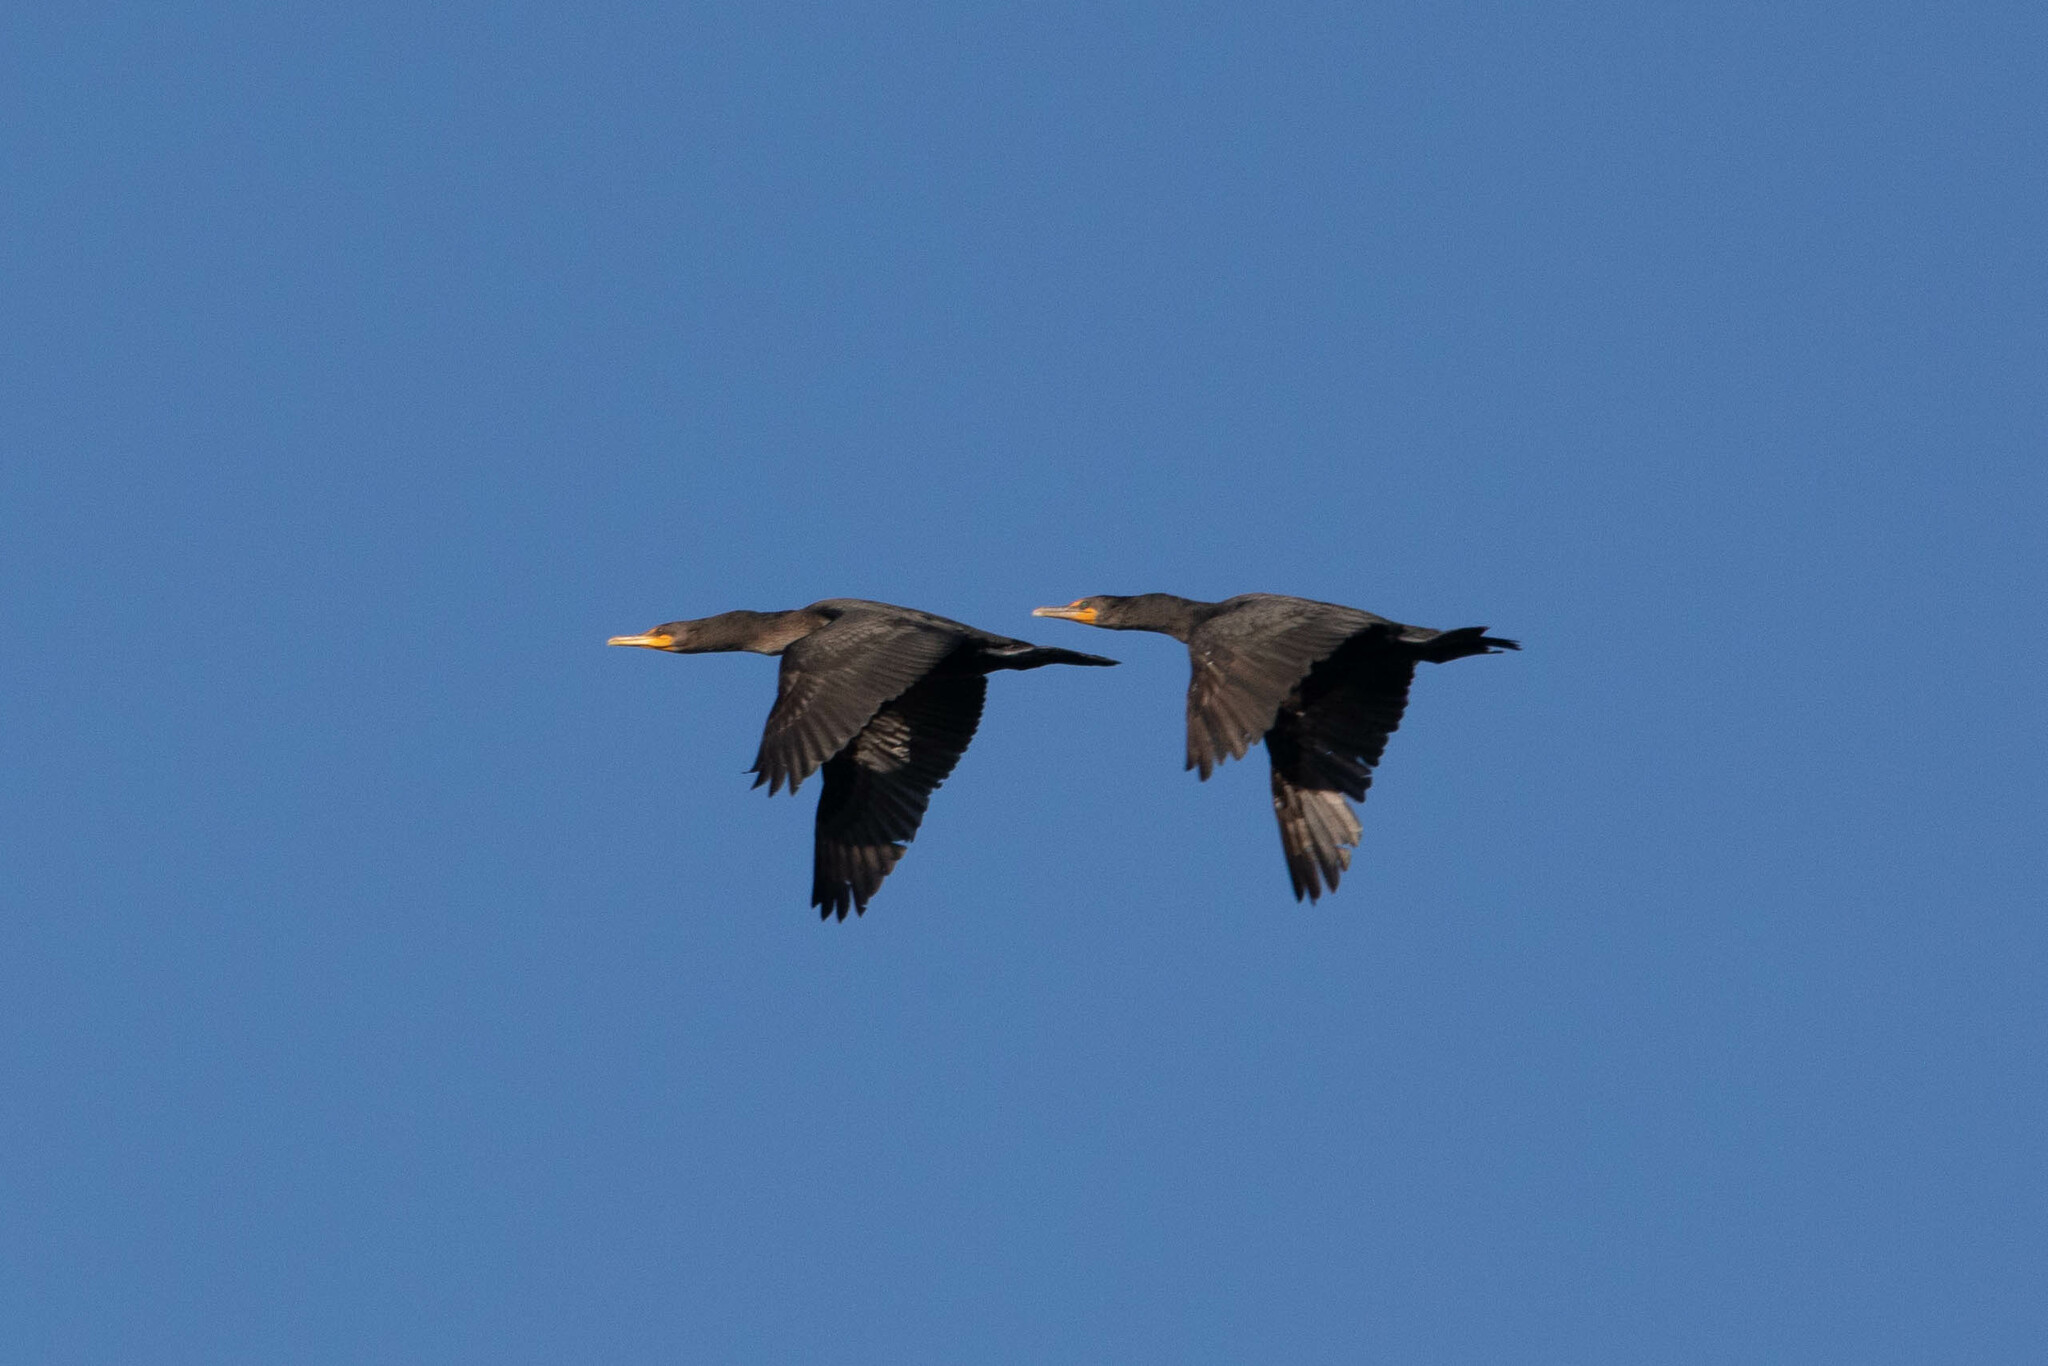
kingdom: Animalia
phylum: Chordata
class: Aves
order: Suliformes
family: Phalacrocoracidae
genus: Phalacrocorax
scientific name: Phalacrocorax auritus
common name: Double-crested cormorant
